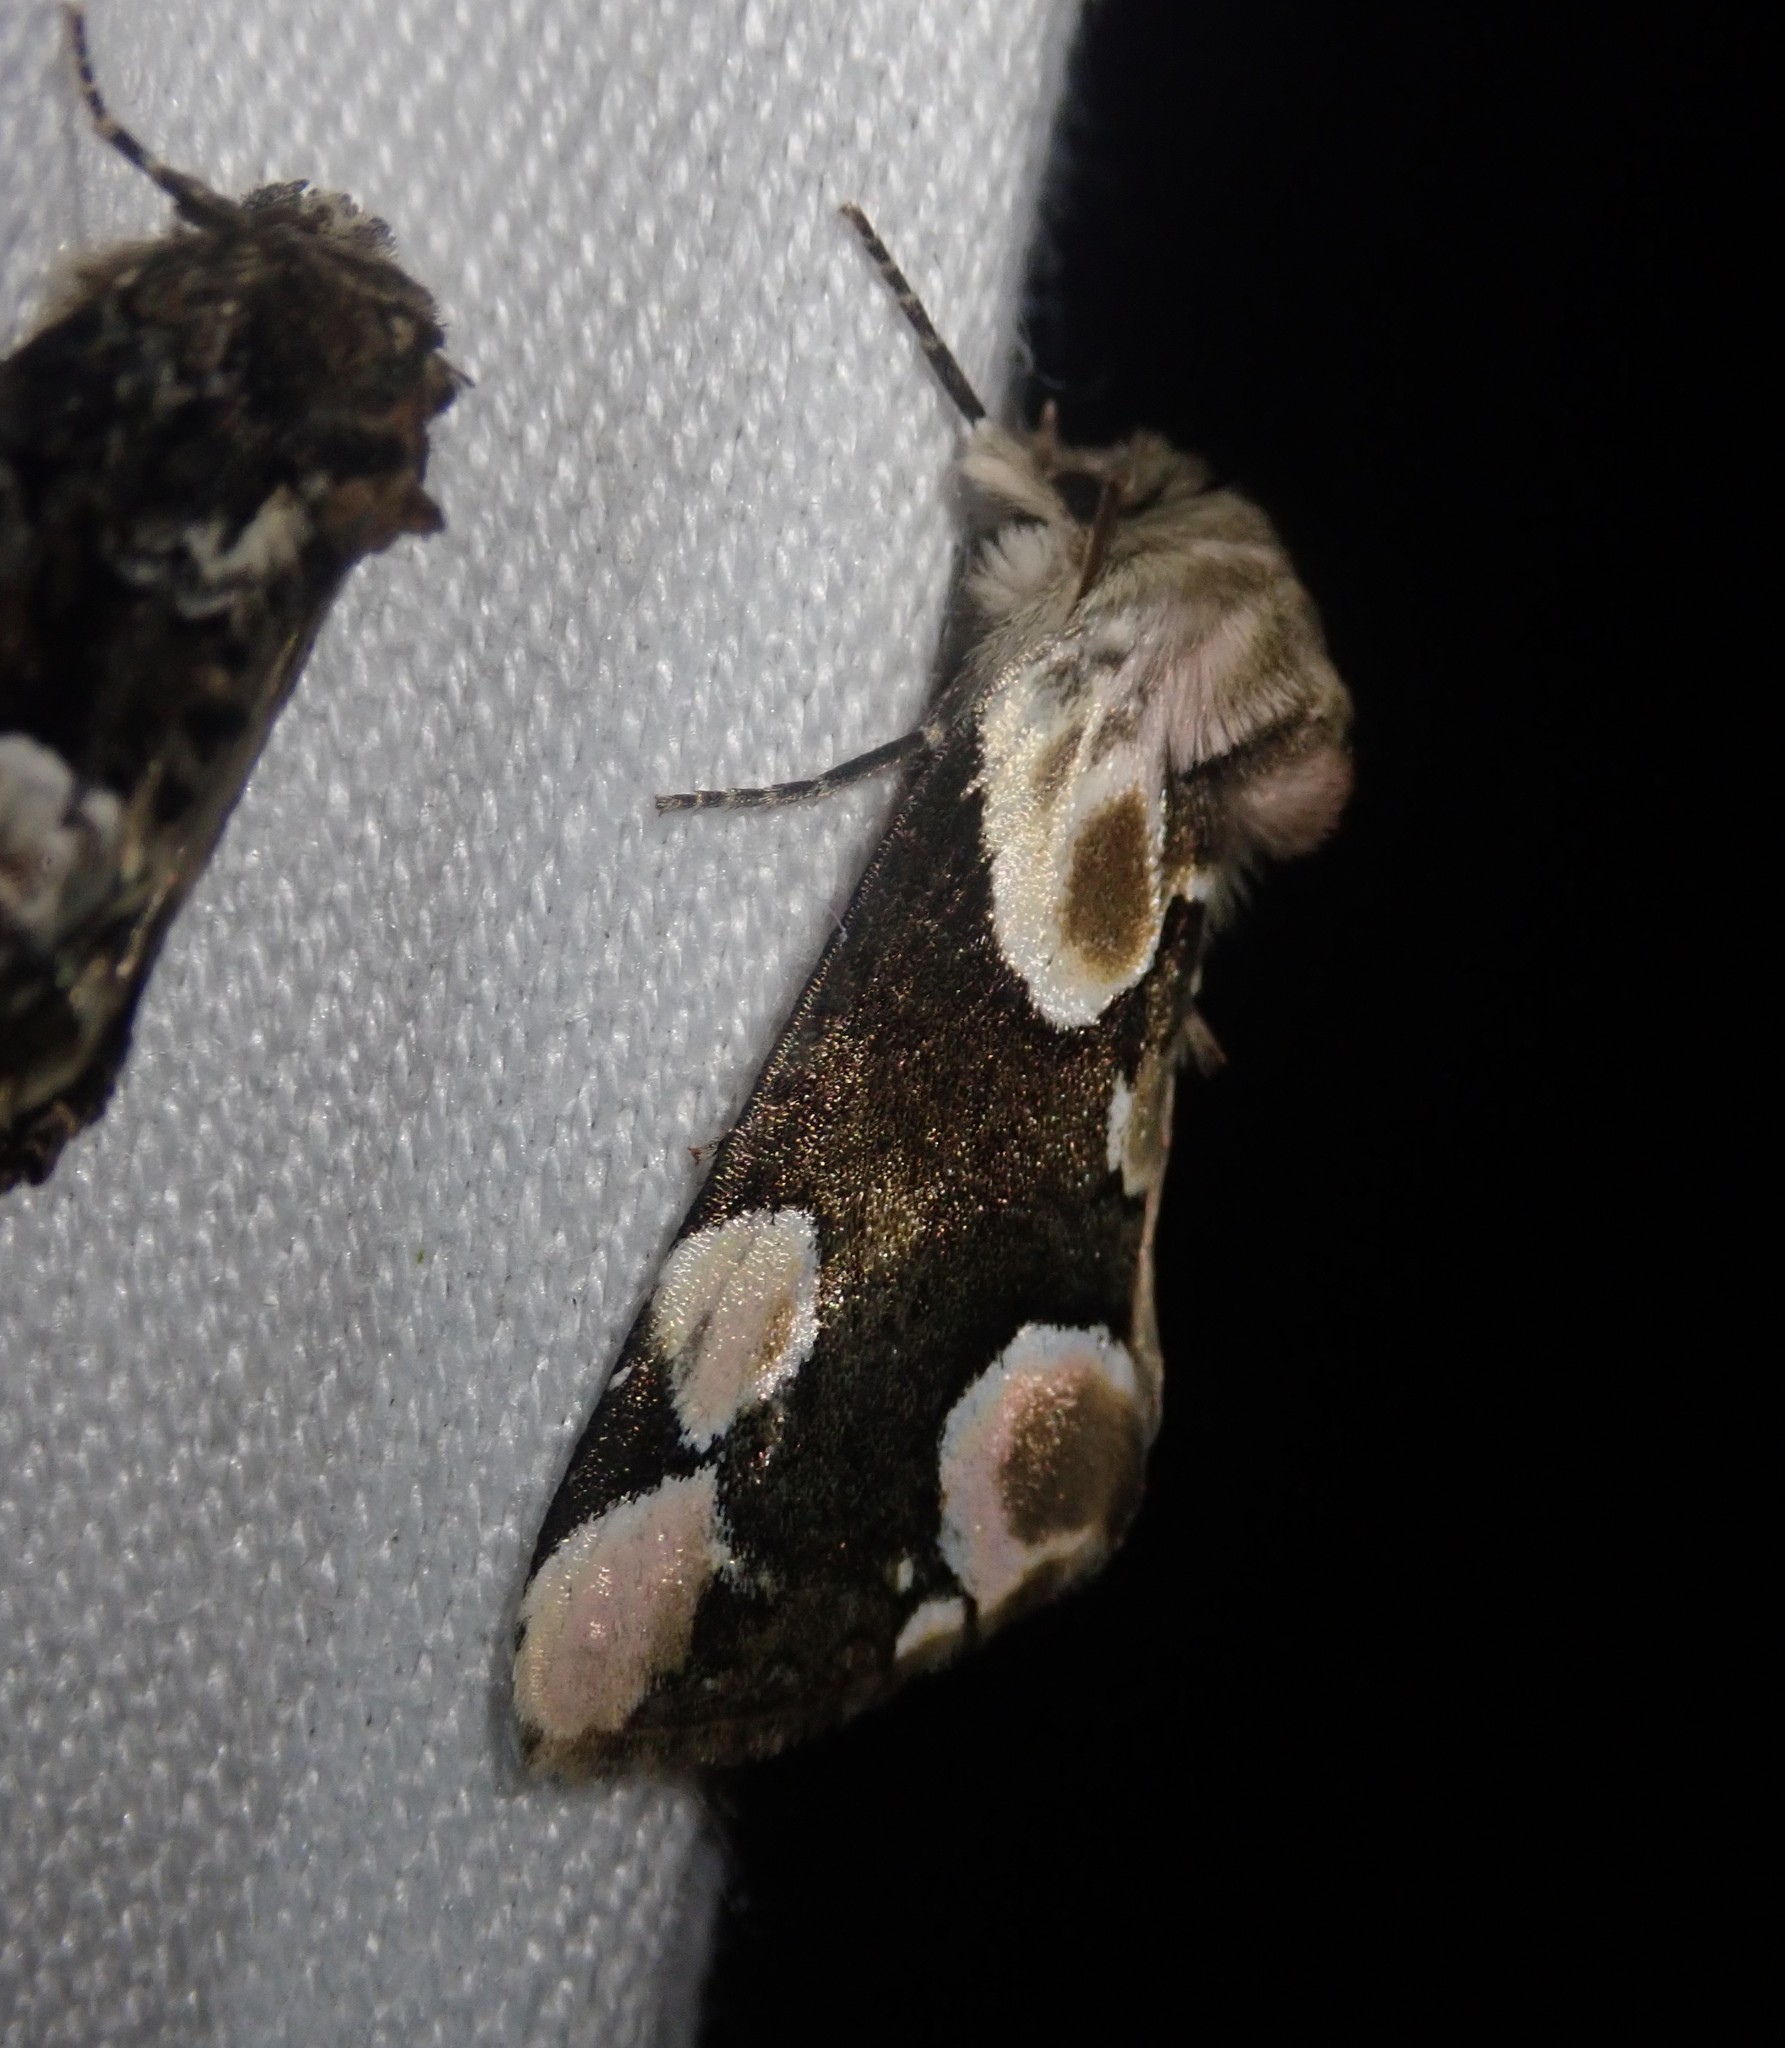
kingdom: Animalia
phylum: Arthropoda
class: Insecta
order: Lepidoptera
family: Drepanidae
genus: Thyatira
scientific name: Thyatira batis
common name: Peach blossom
